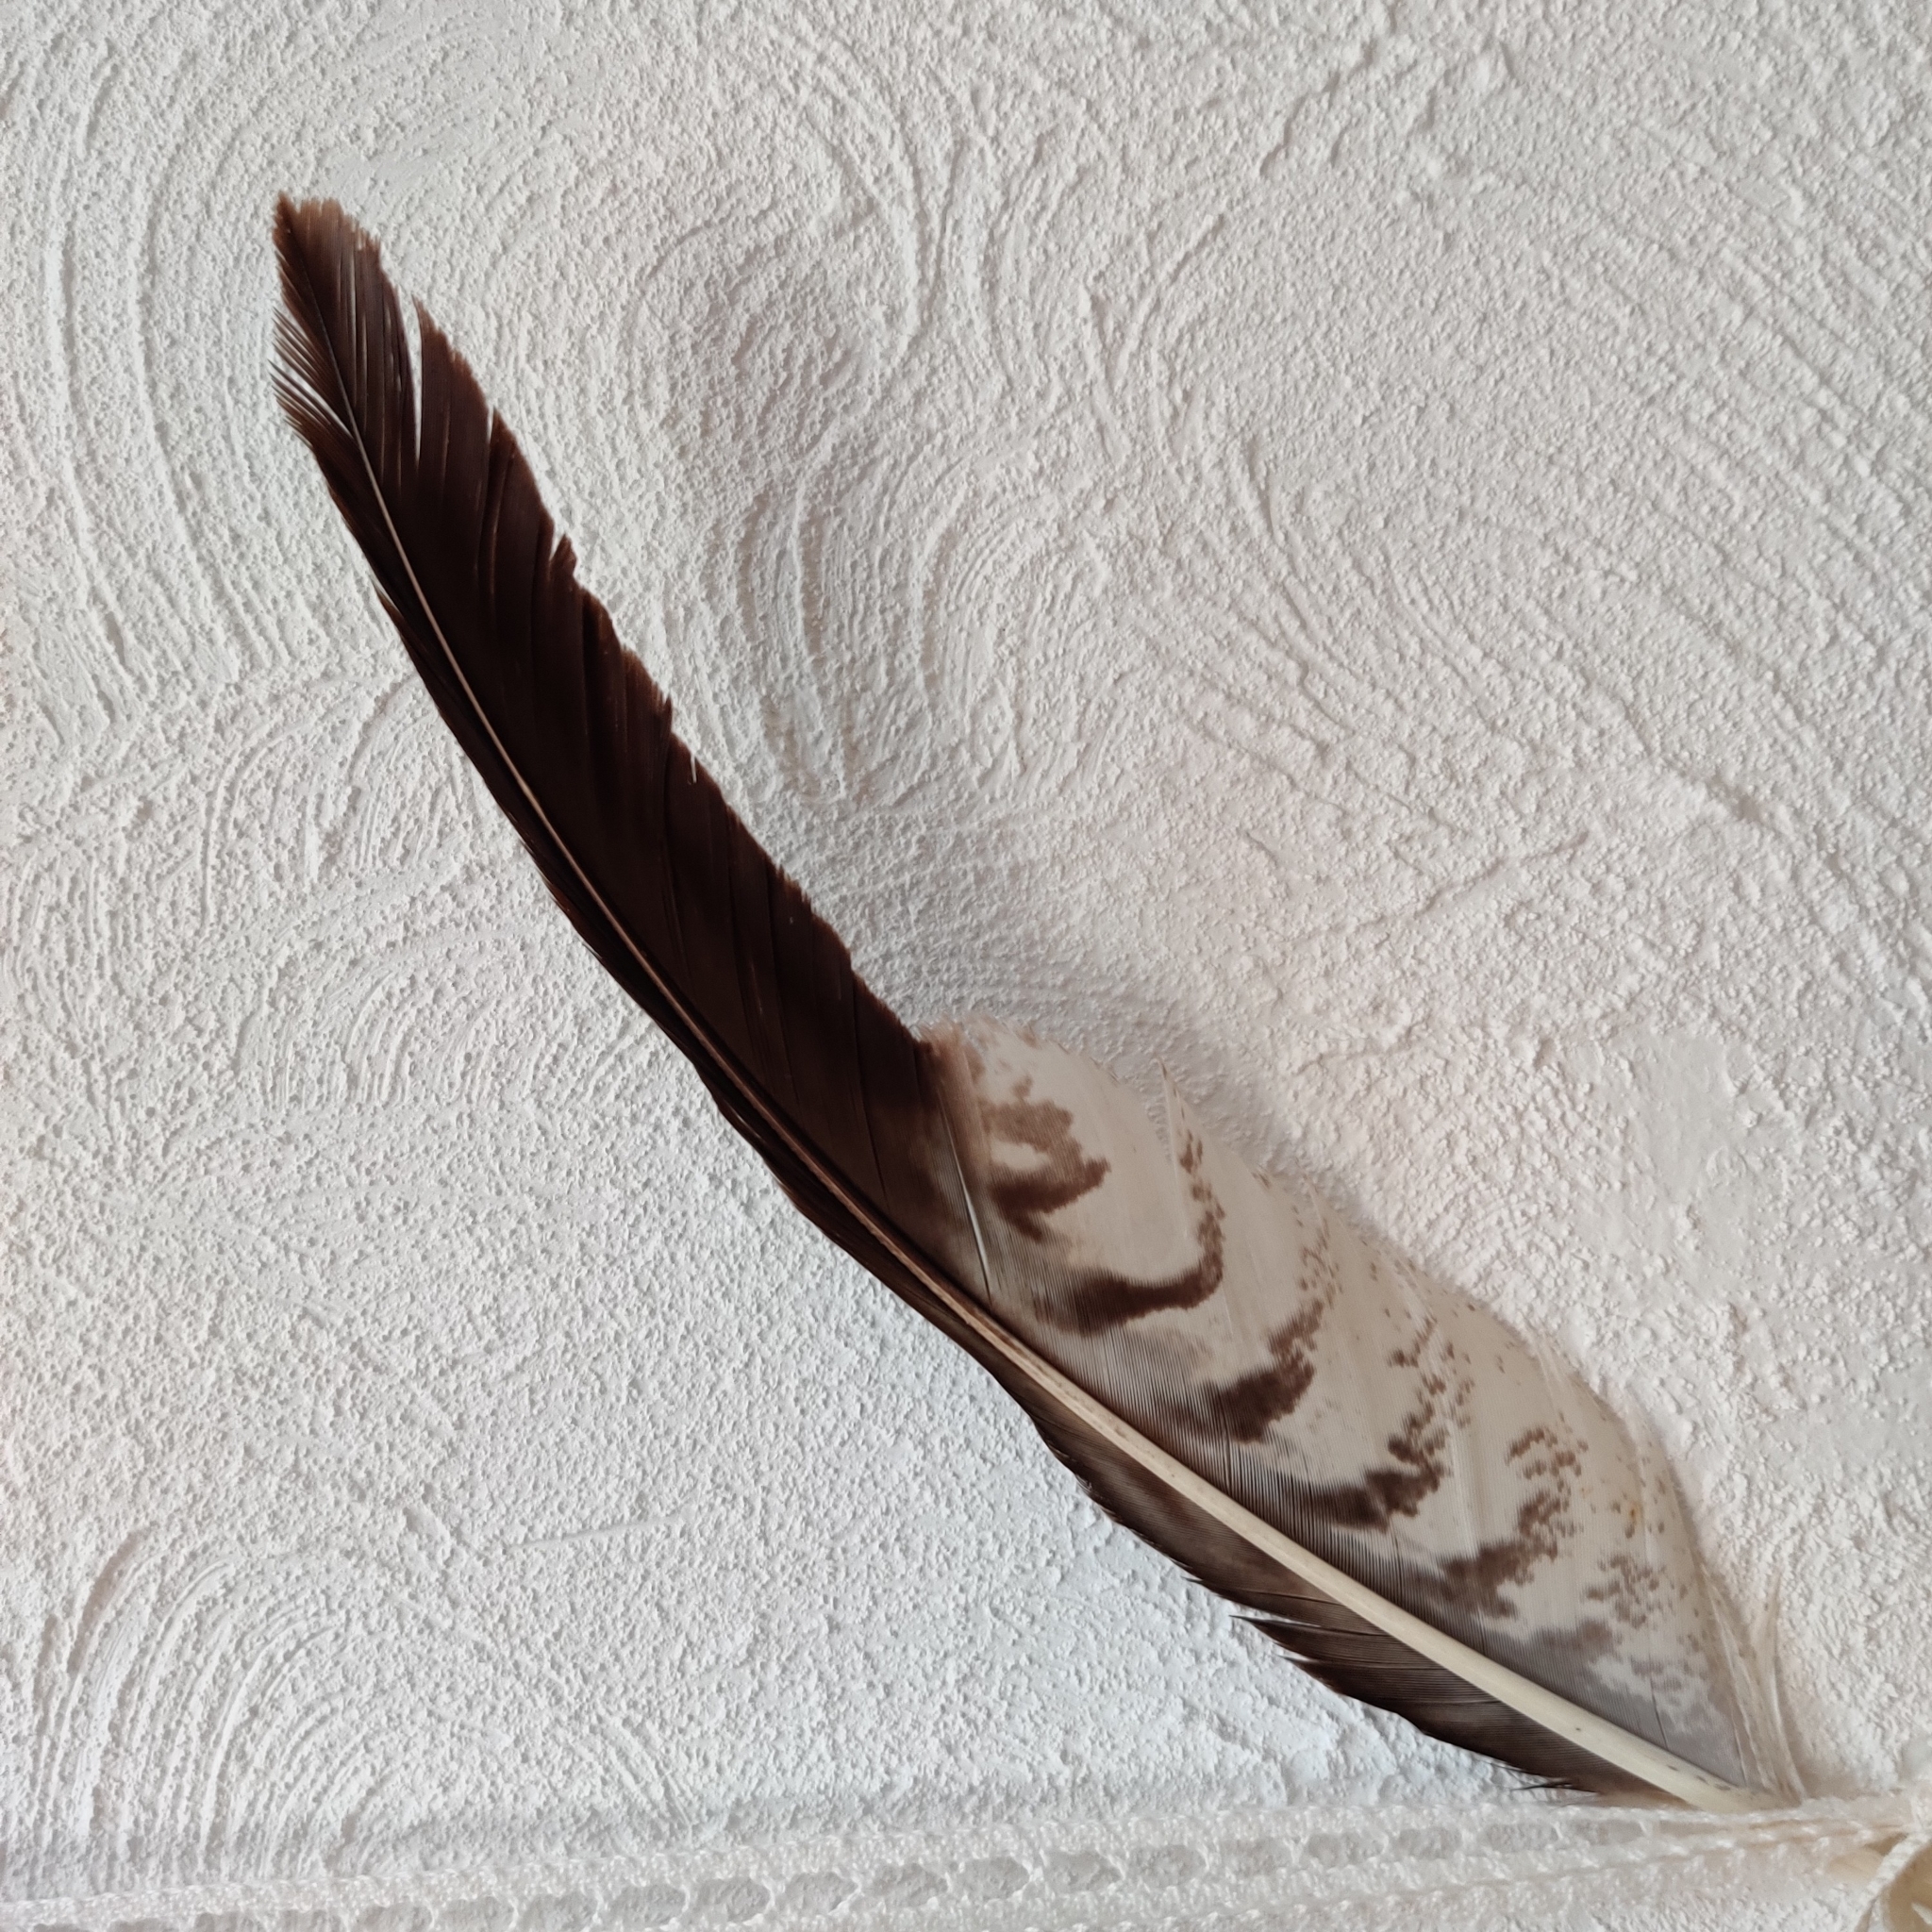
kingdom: Animalia
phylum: Chordata
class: Aves
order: Accipitriformes
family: Accipitridae
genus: Buteo
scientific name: Buteo buteo
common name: Common buzzard
